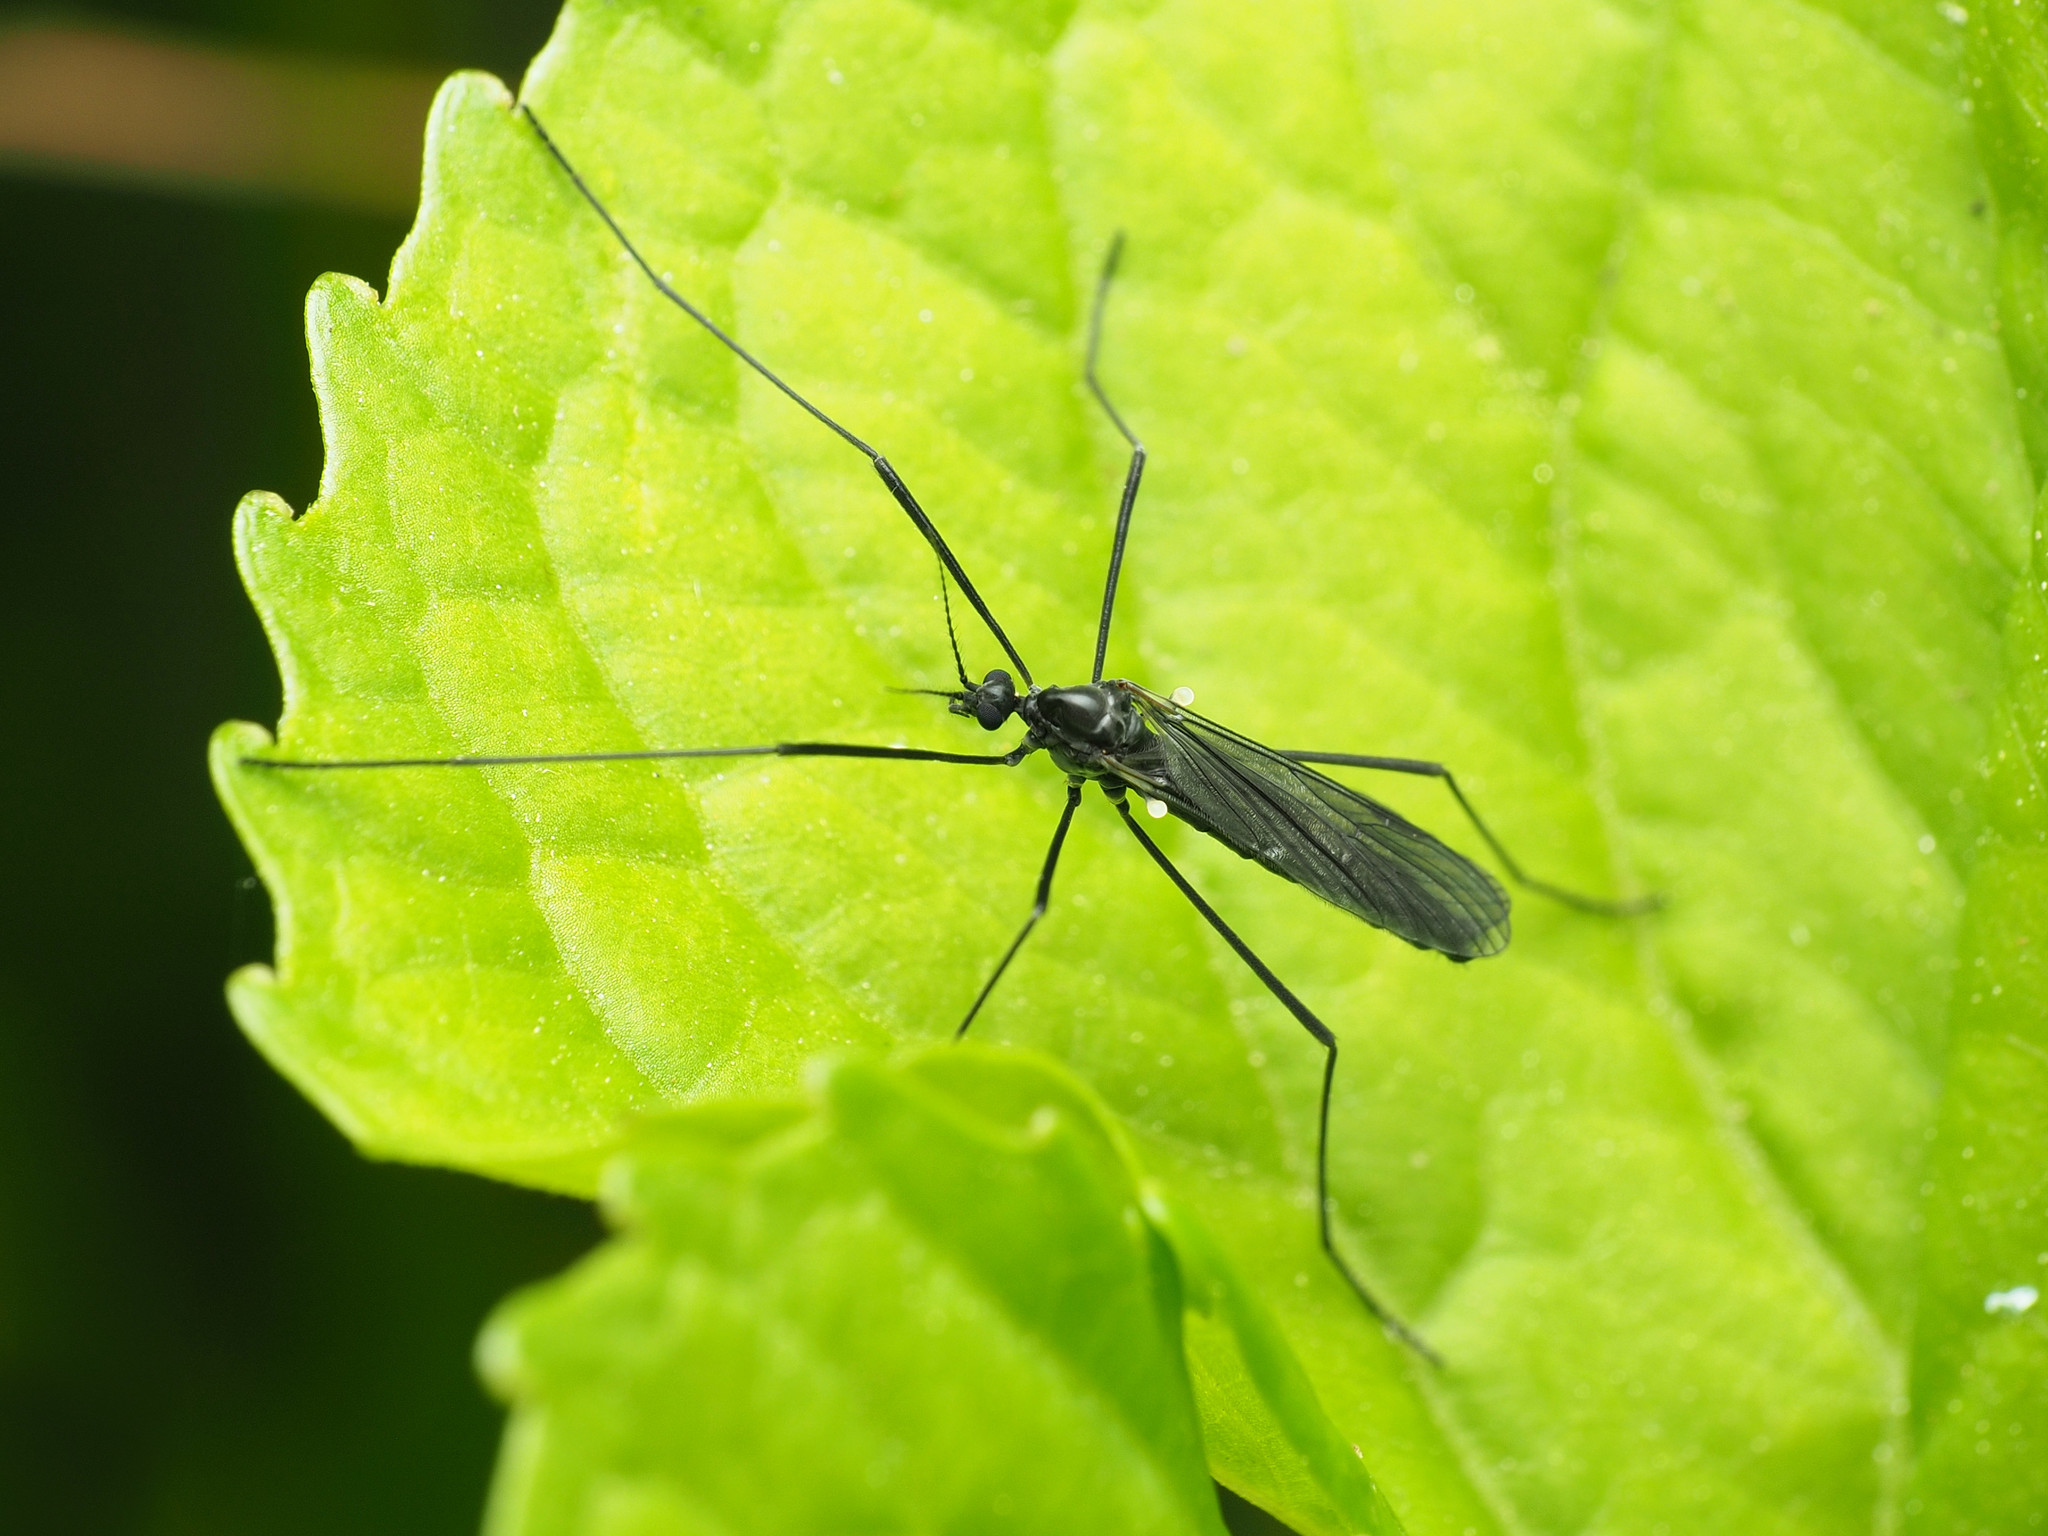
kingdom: Animalia
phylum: Arthropoda
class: Insecta
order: Diptera
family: Limoniidae
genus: Gnophomyia
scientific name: Gnophomyia tristissima
